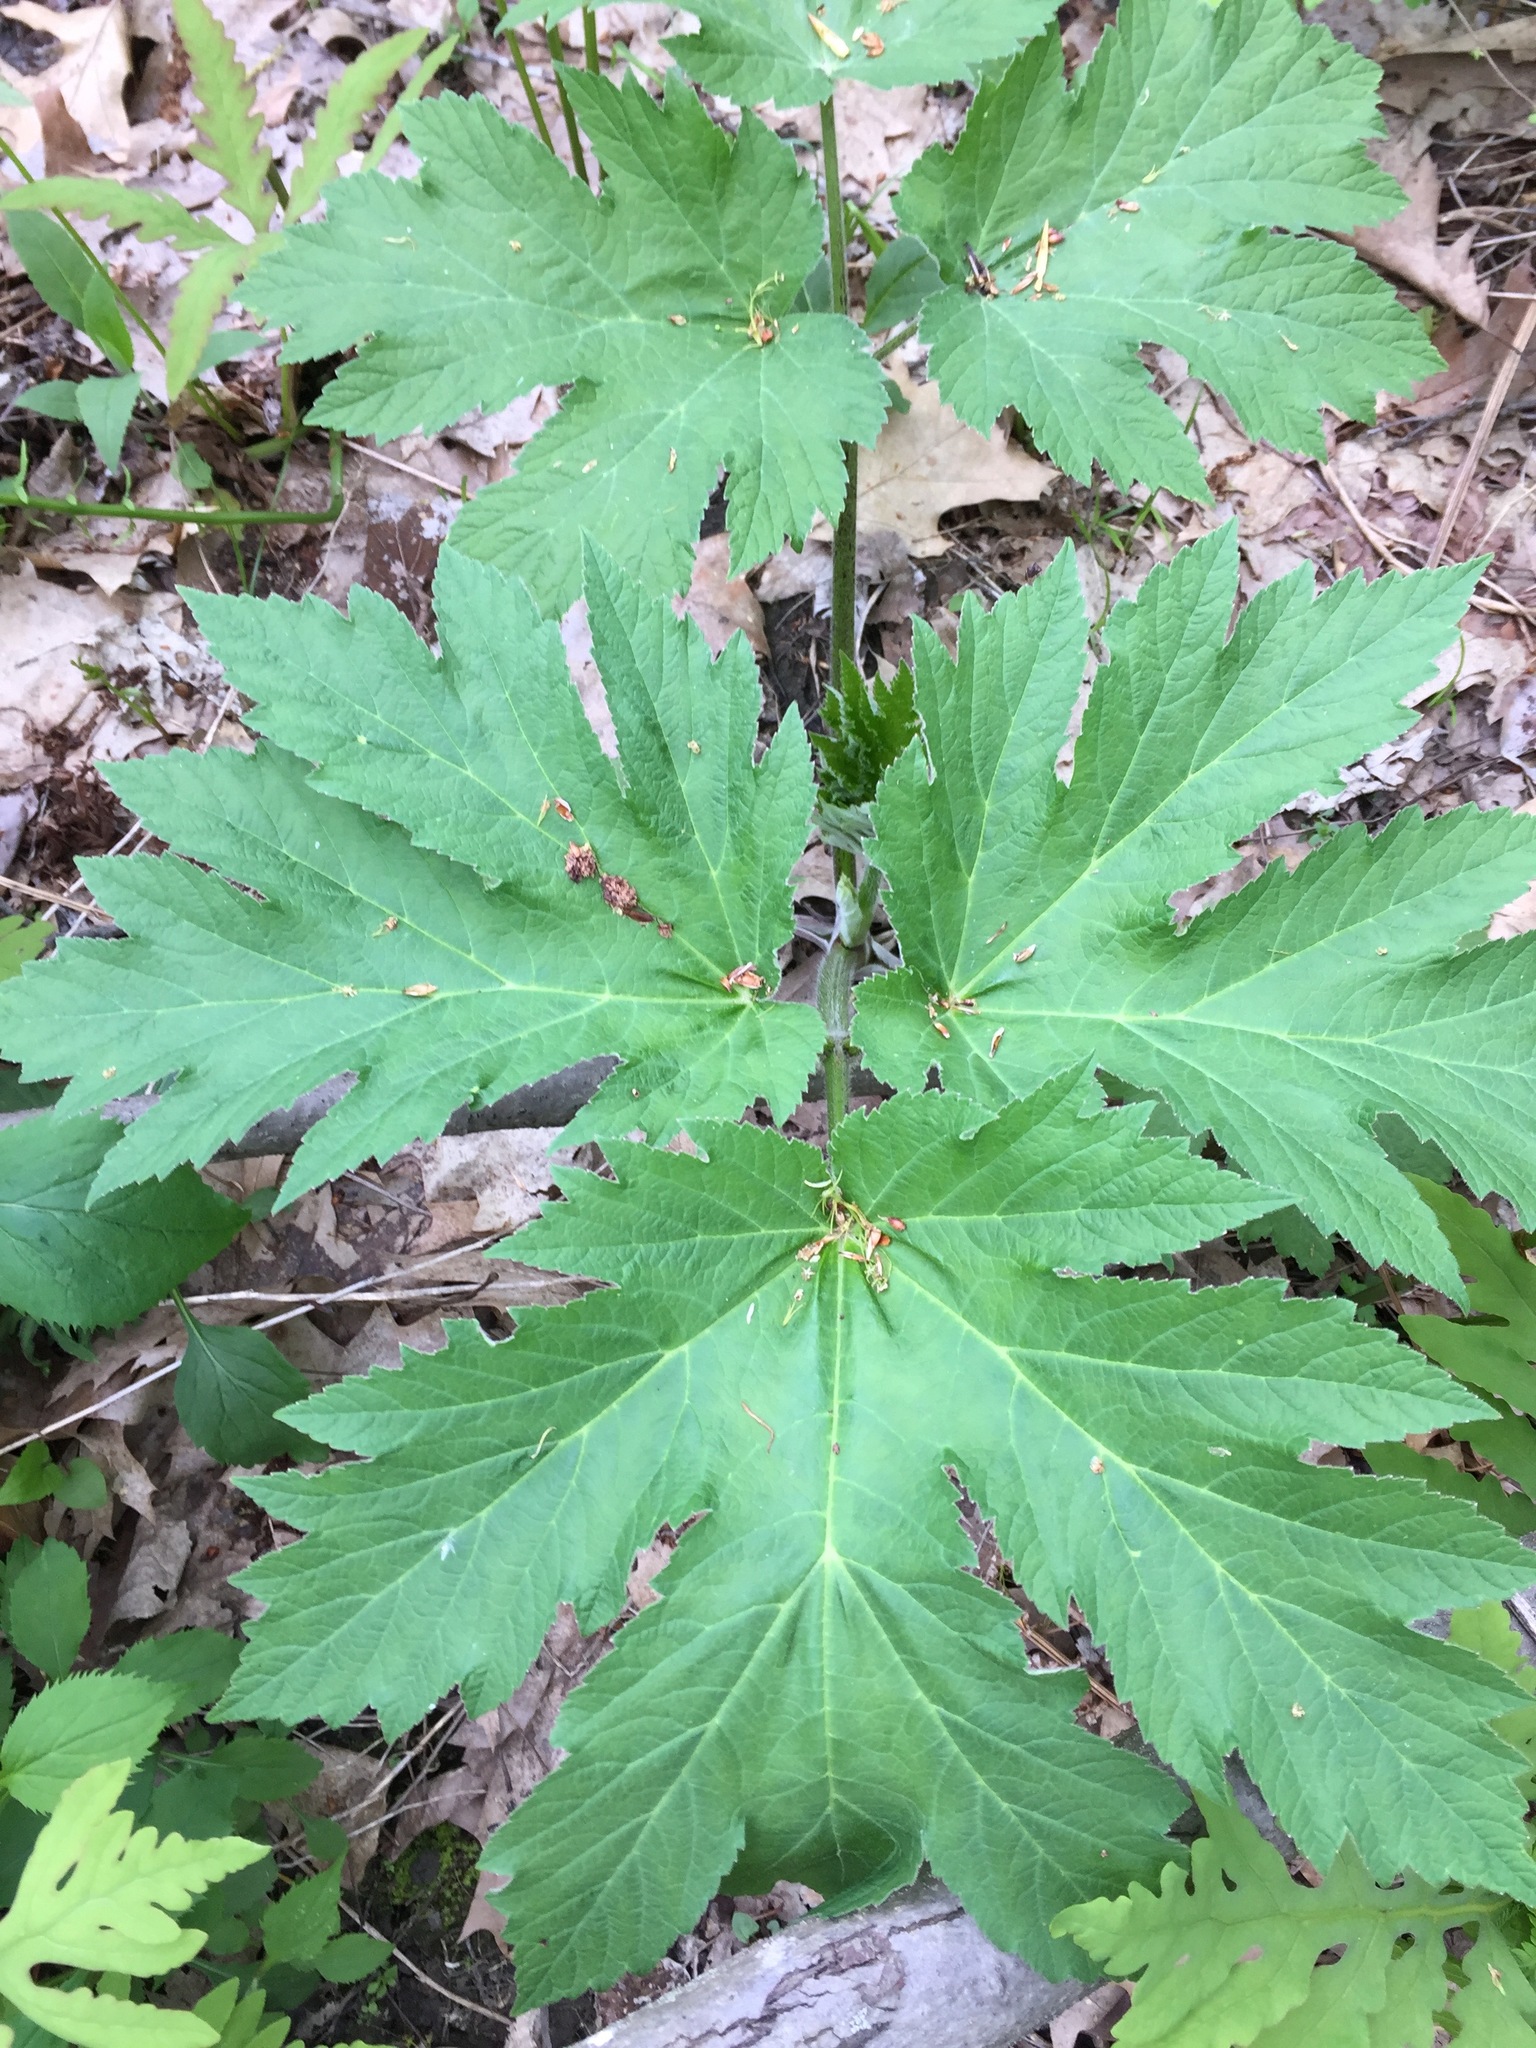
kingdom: Plantae
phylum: Tracheophyta
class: Magnoliopsida
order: Apiales
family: Apiaceae
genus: Heracleum
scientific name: Heracleum maximum
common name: American cow parsnip
